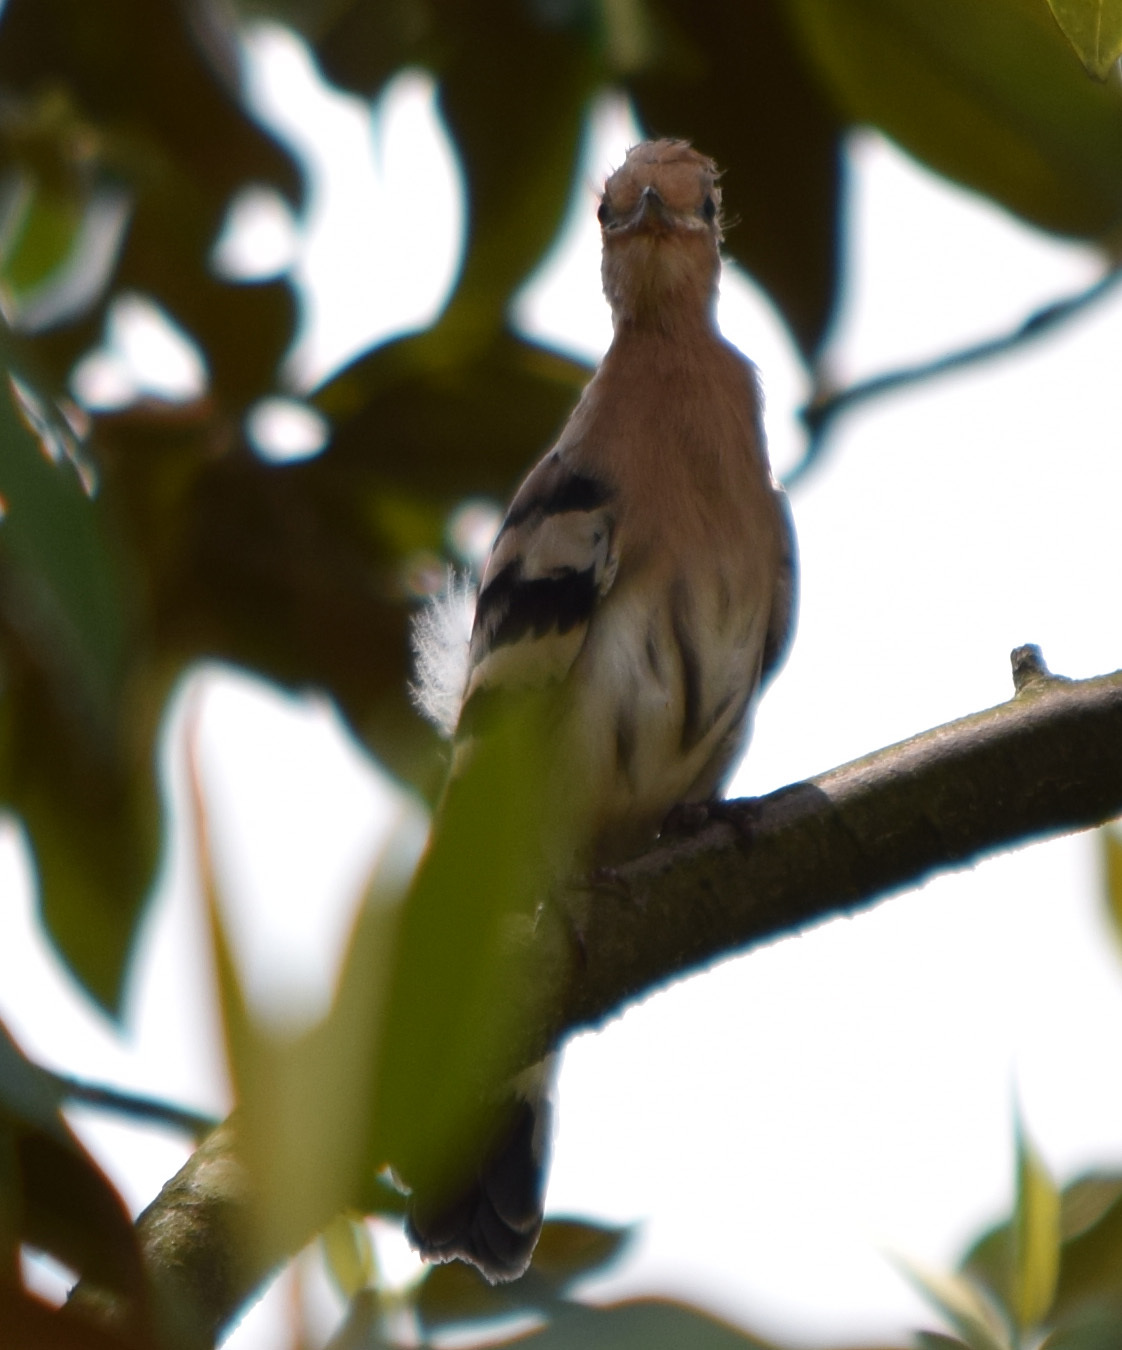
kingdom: Animalia
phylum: Chordata
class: Aves
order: Bucerotiformes
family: Upupidae
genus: Upupa
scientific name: Upupa epops
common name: Eurasian hoopoe
